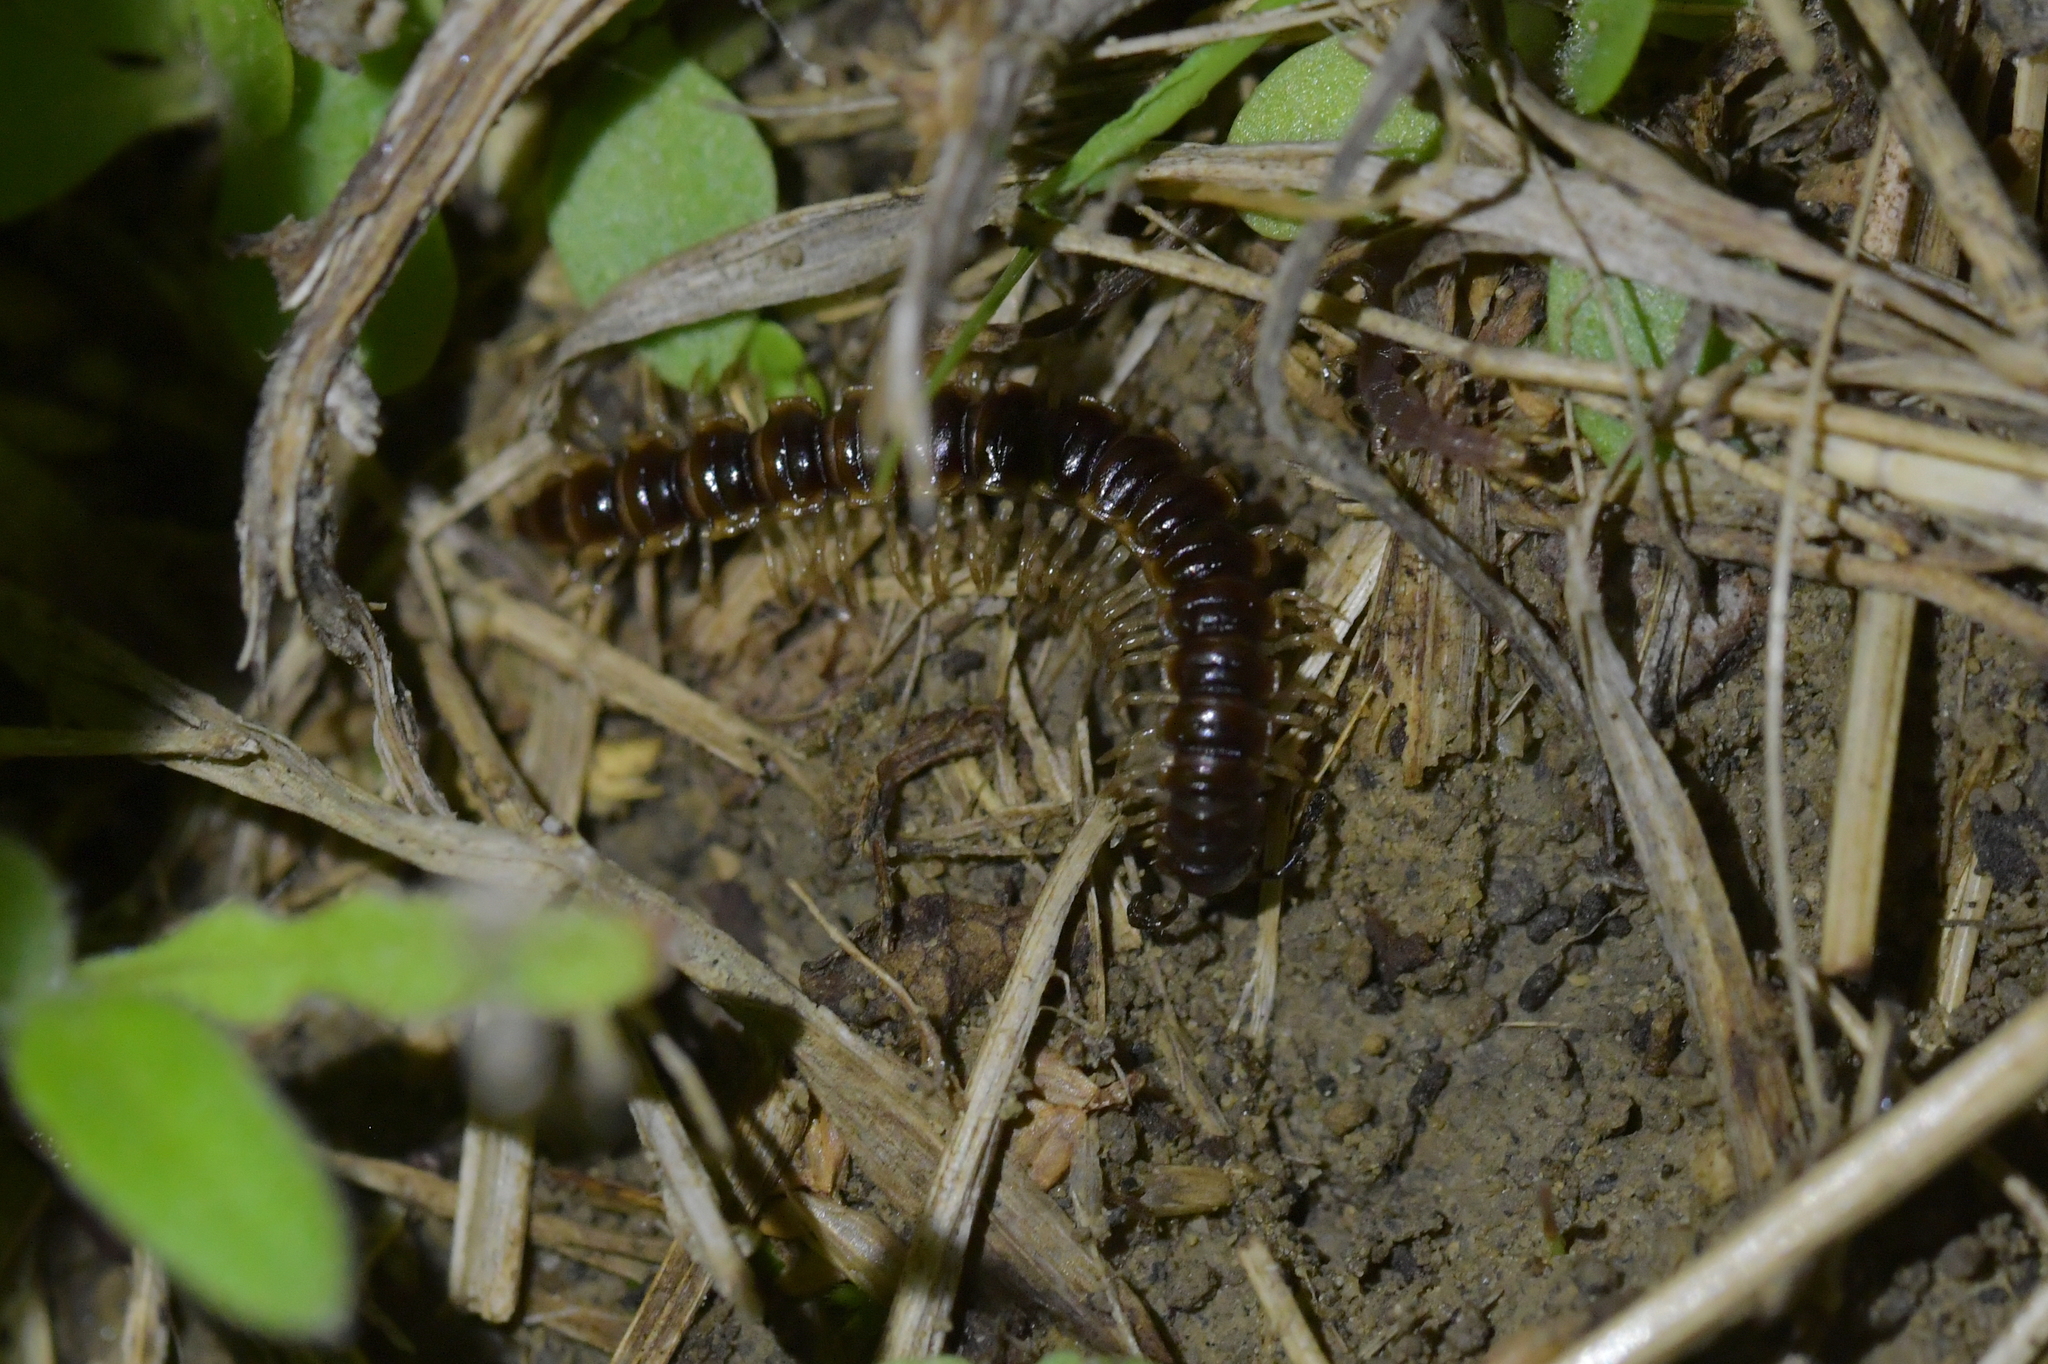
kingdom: Animalia
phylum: Arthropoda
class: Diplopoda
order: Polydesmida
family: Paradoxosomatidae
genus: Oxidus
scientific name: Oxidus gracilis
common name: Greenhouse millipede
